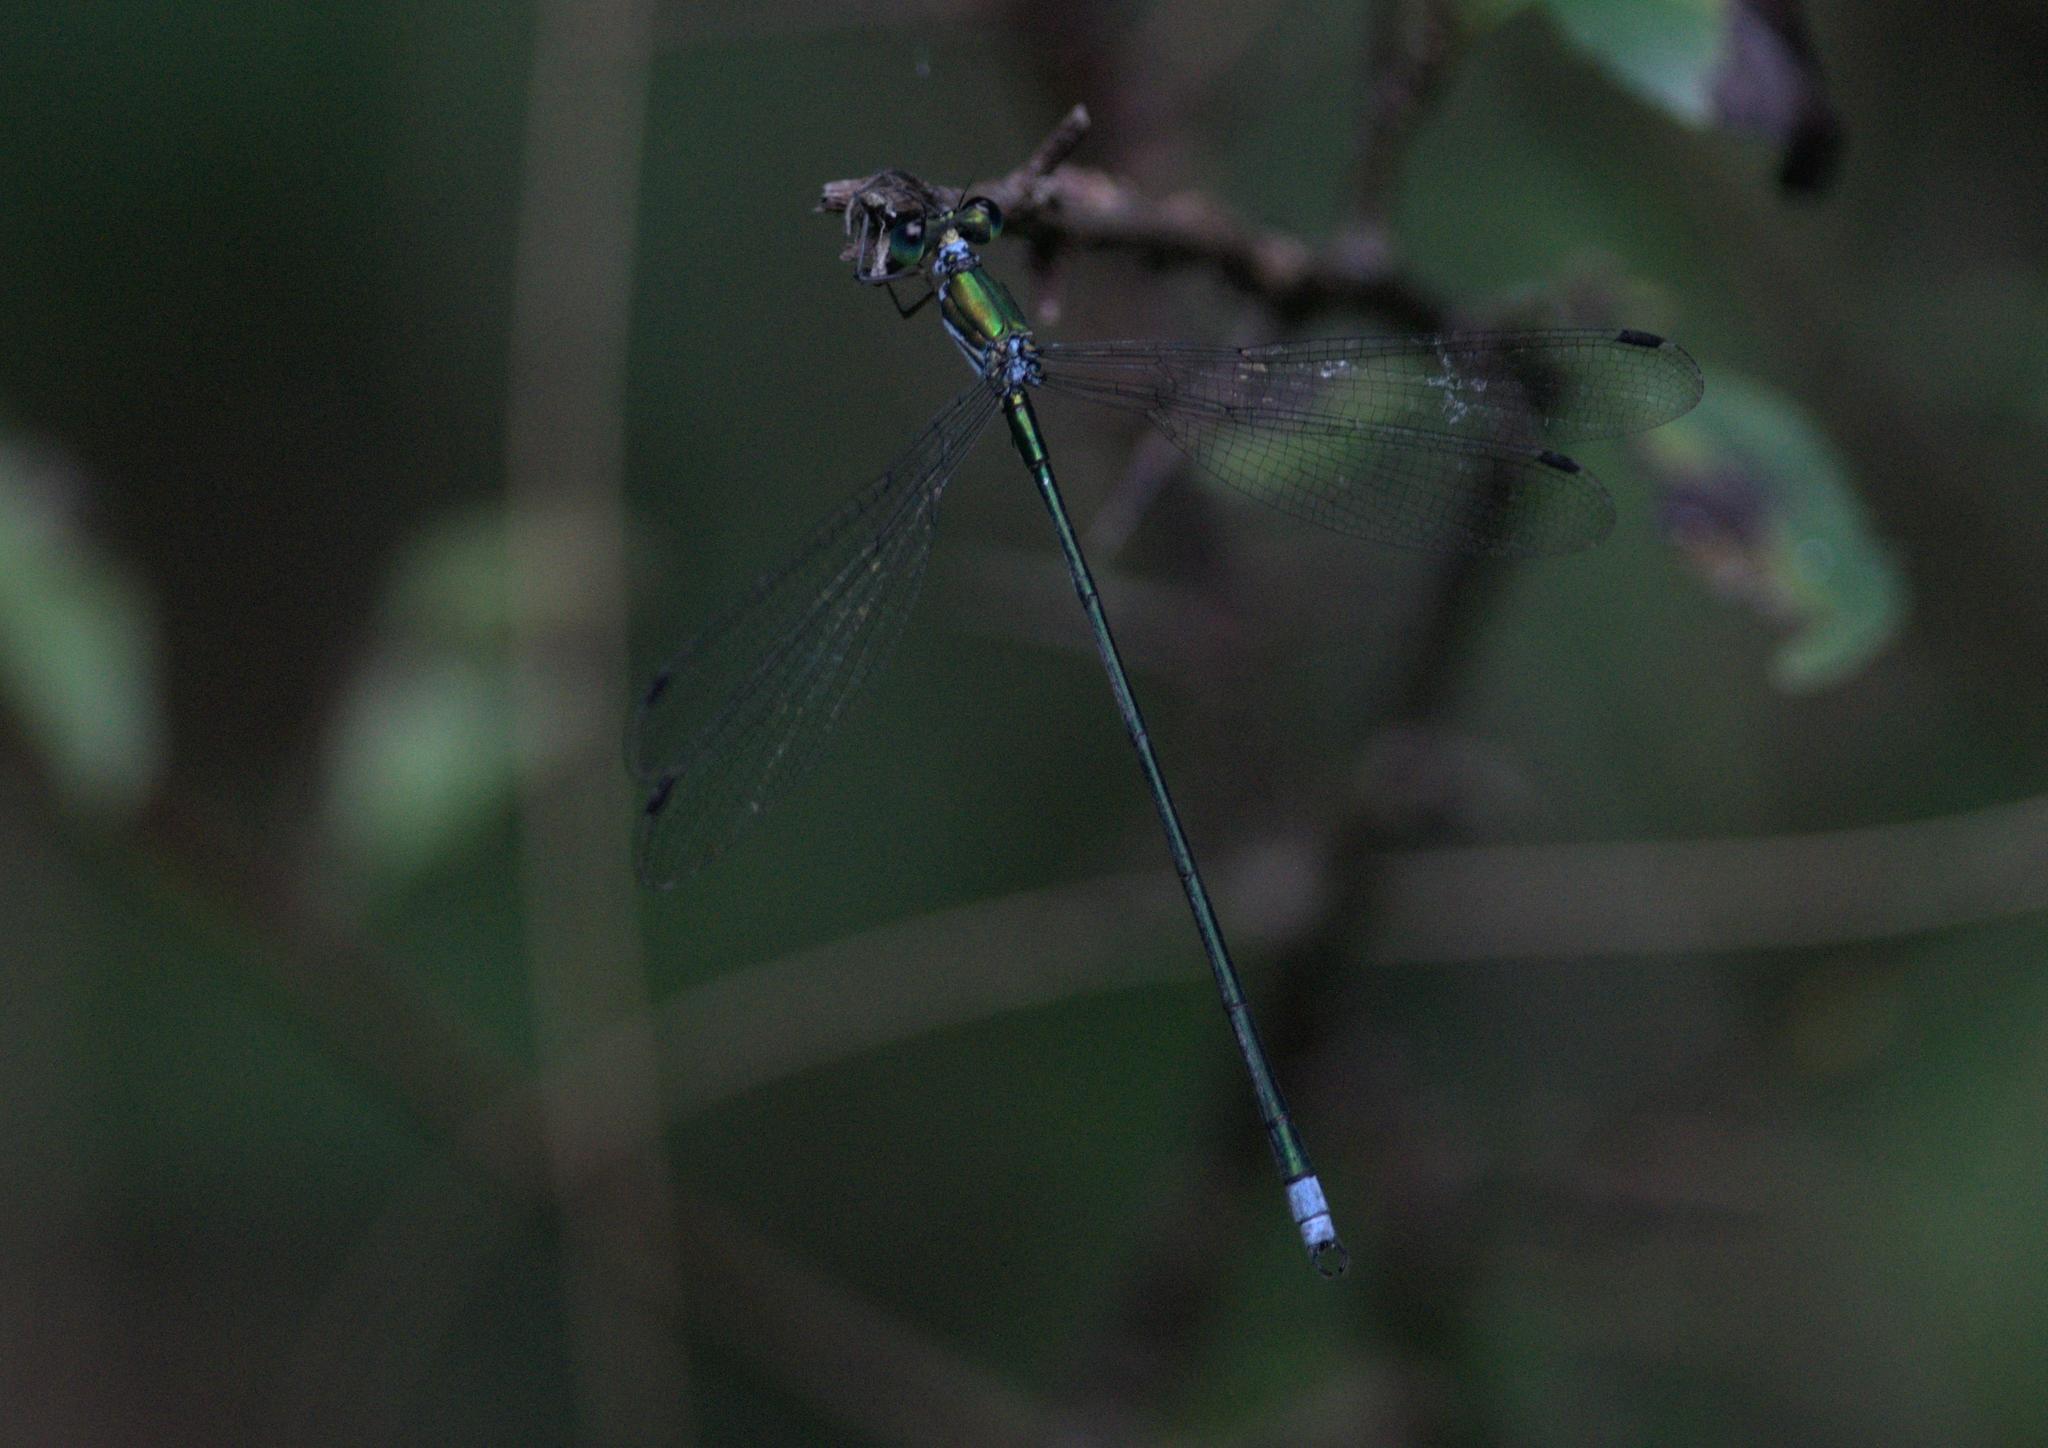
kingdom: Animalia
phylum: Arthropoda
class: Insecta
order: Odonata
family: Synlestidae
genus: Megalestes
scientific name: Megalestes major
